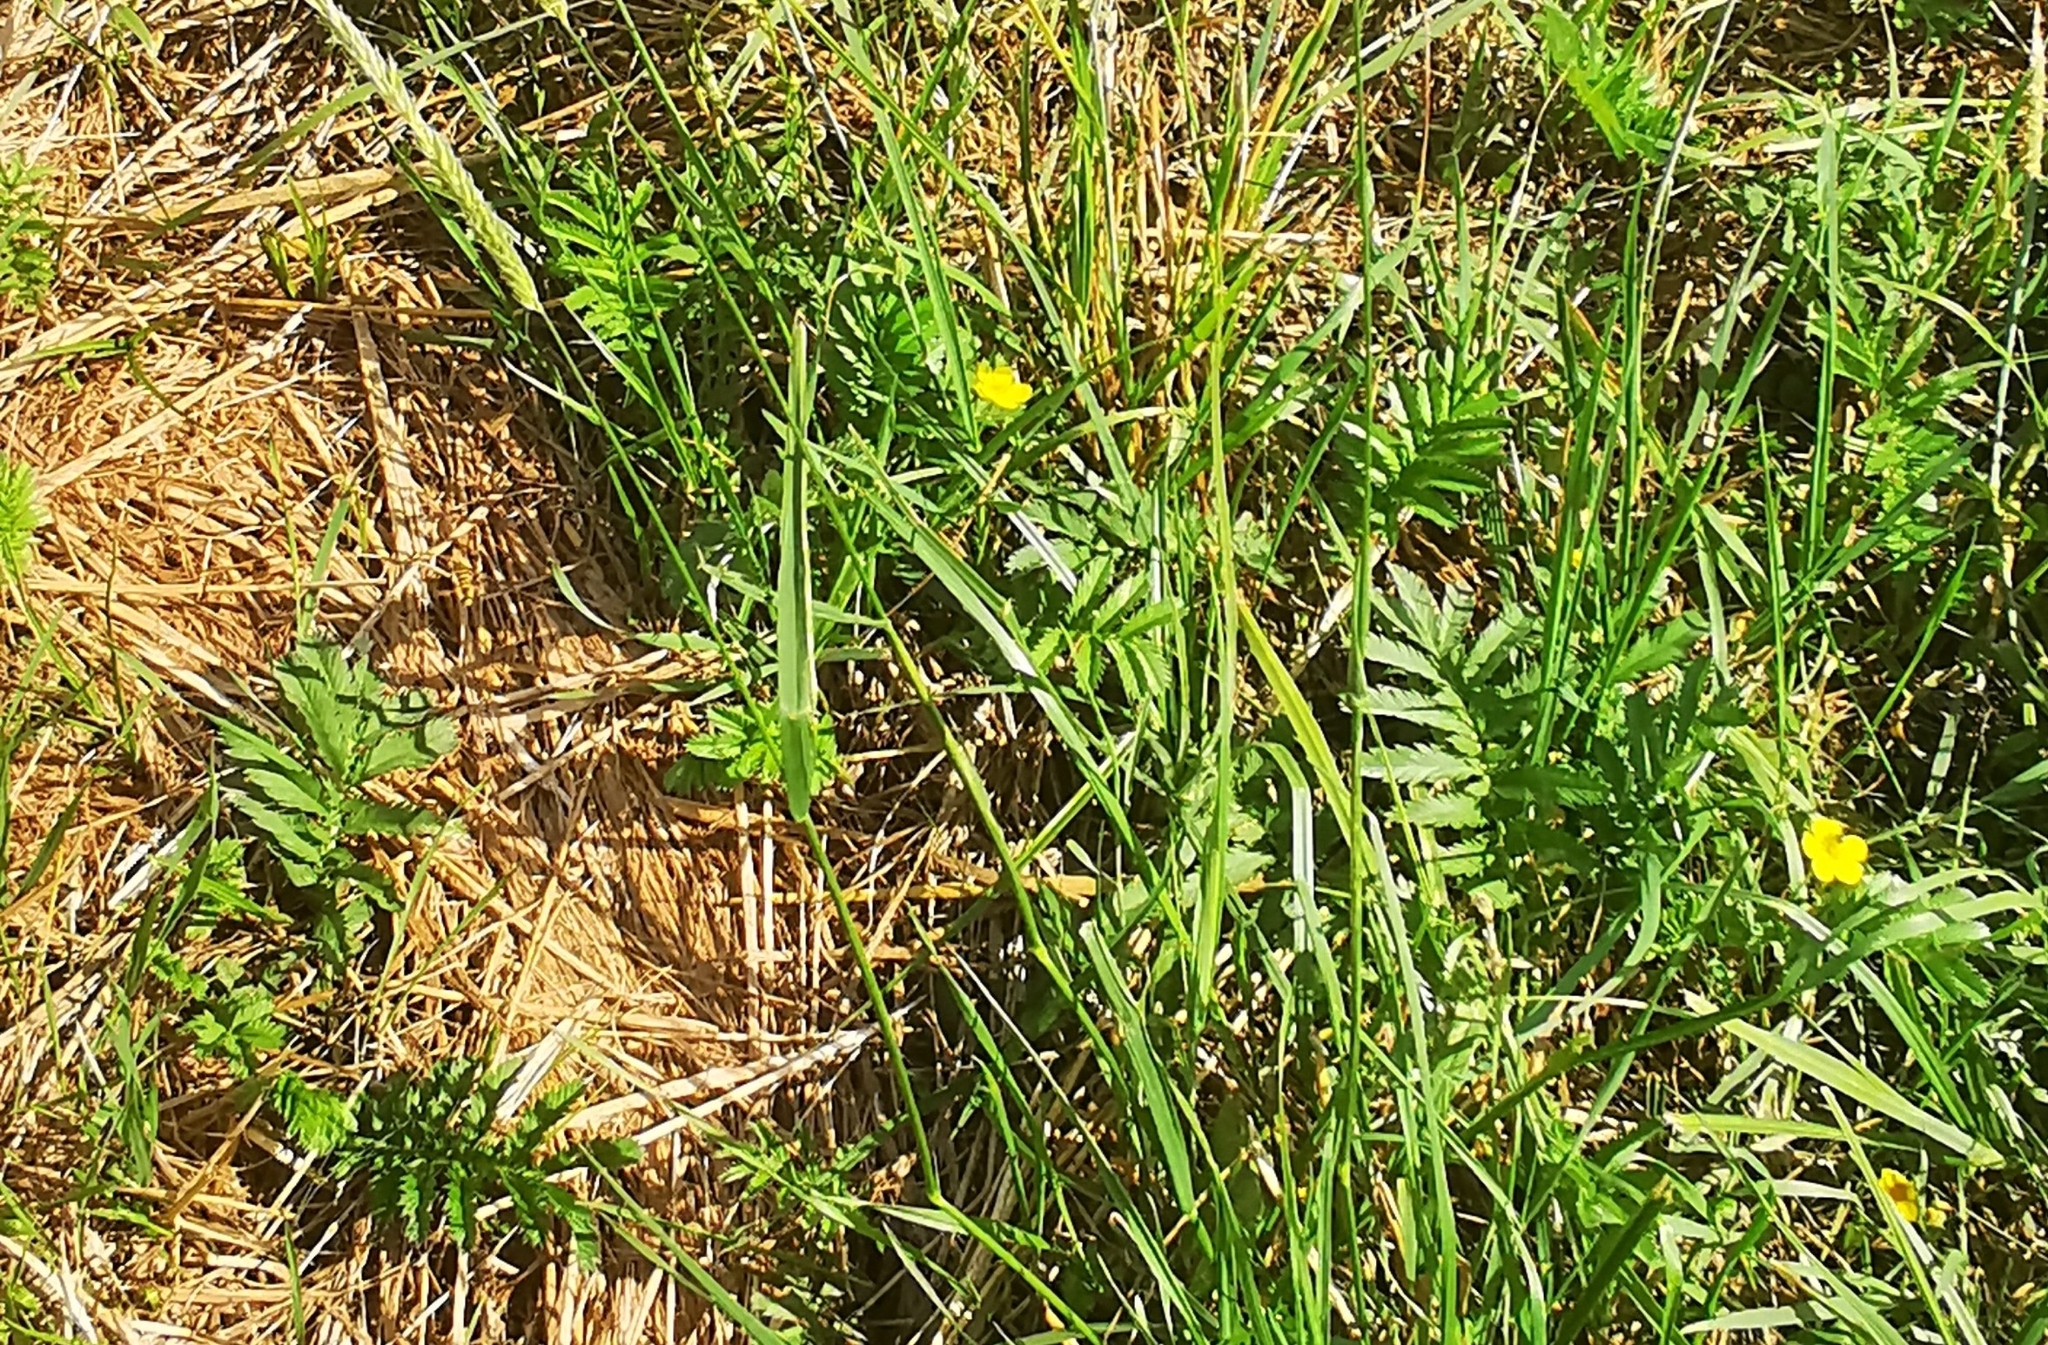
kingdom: Plantae
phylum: Tracheophyta
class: Magnoliopsida
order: Rosales
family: Rosaceae
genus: Argentina
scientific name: Argentina anserina
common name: Common silverweed
